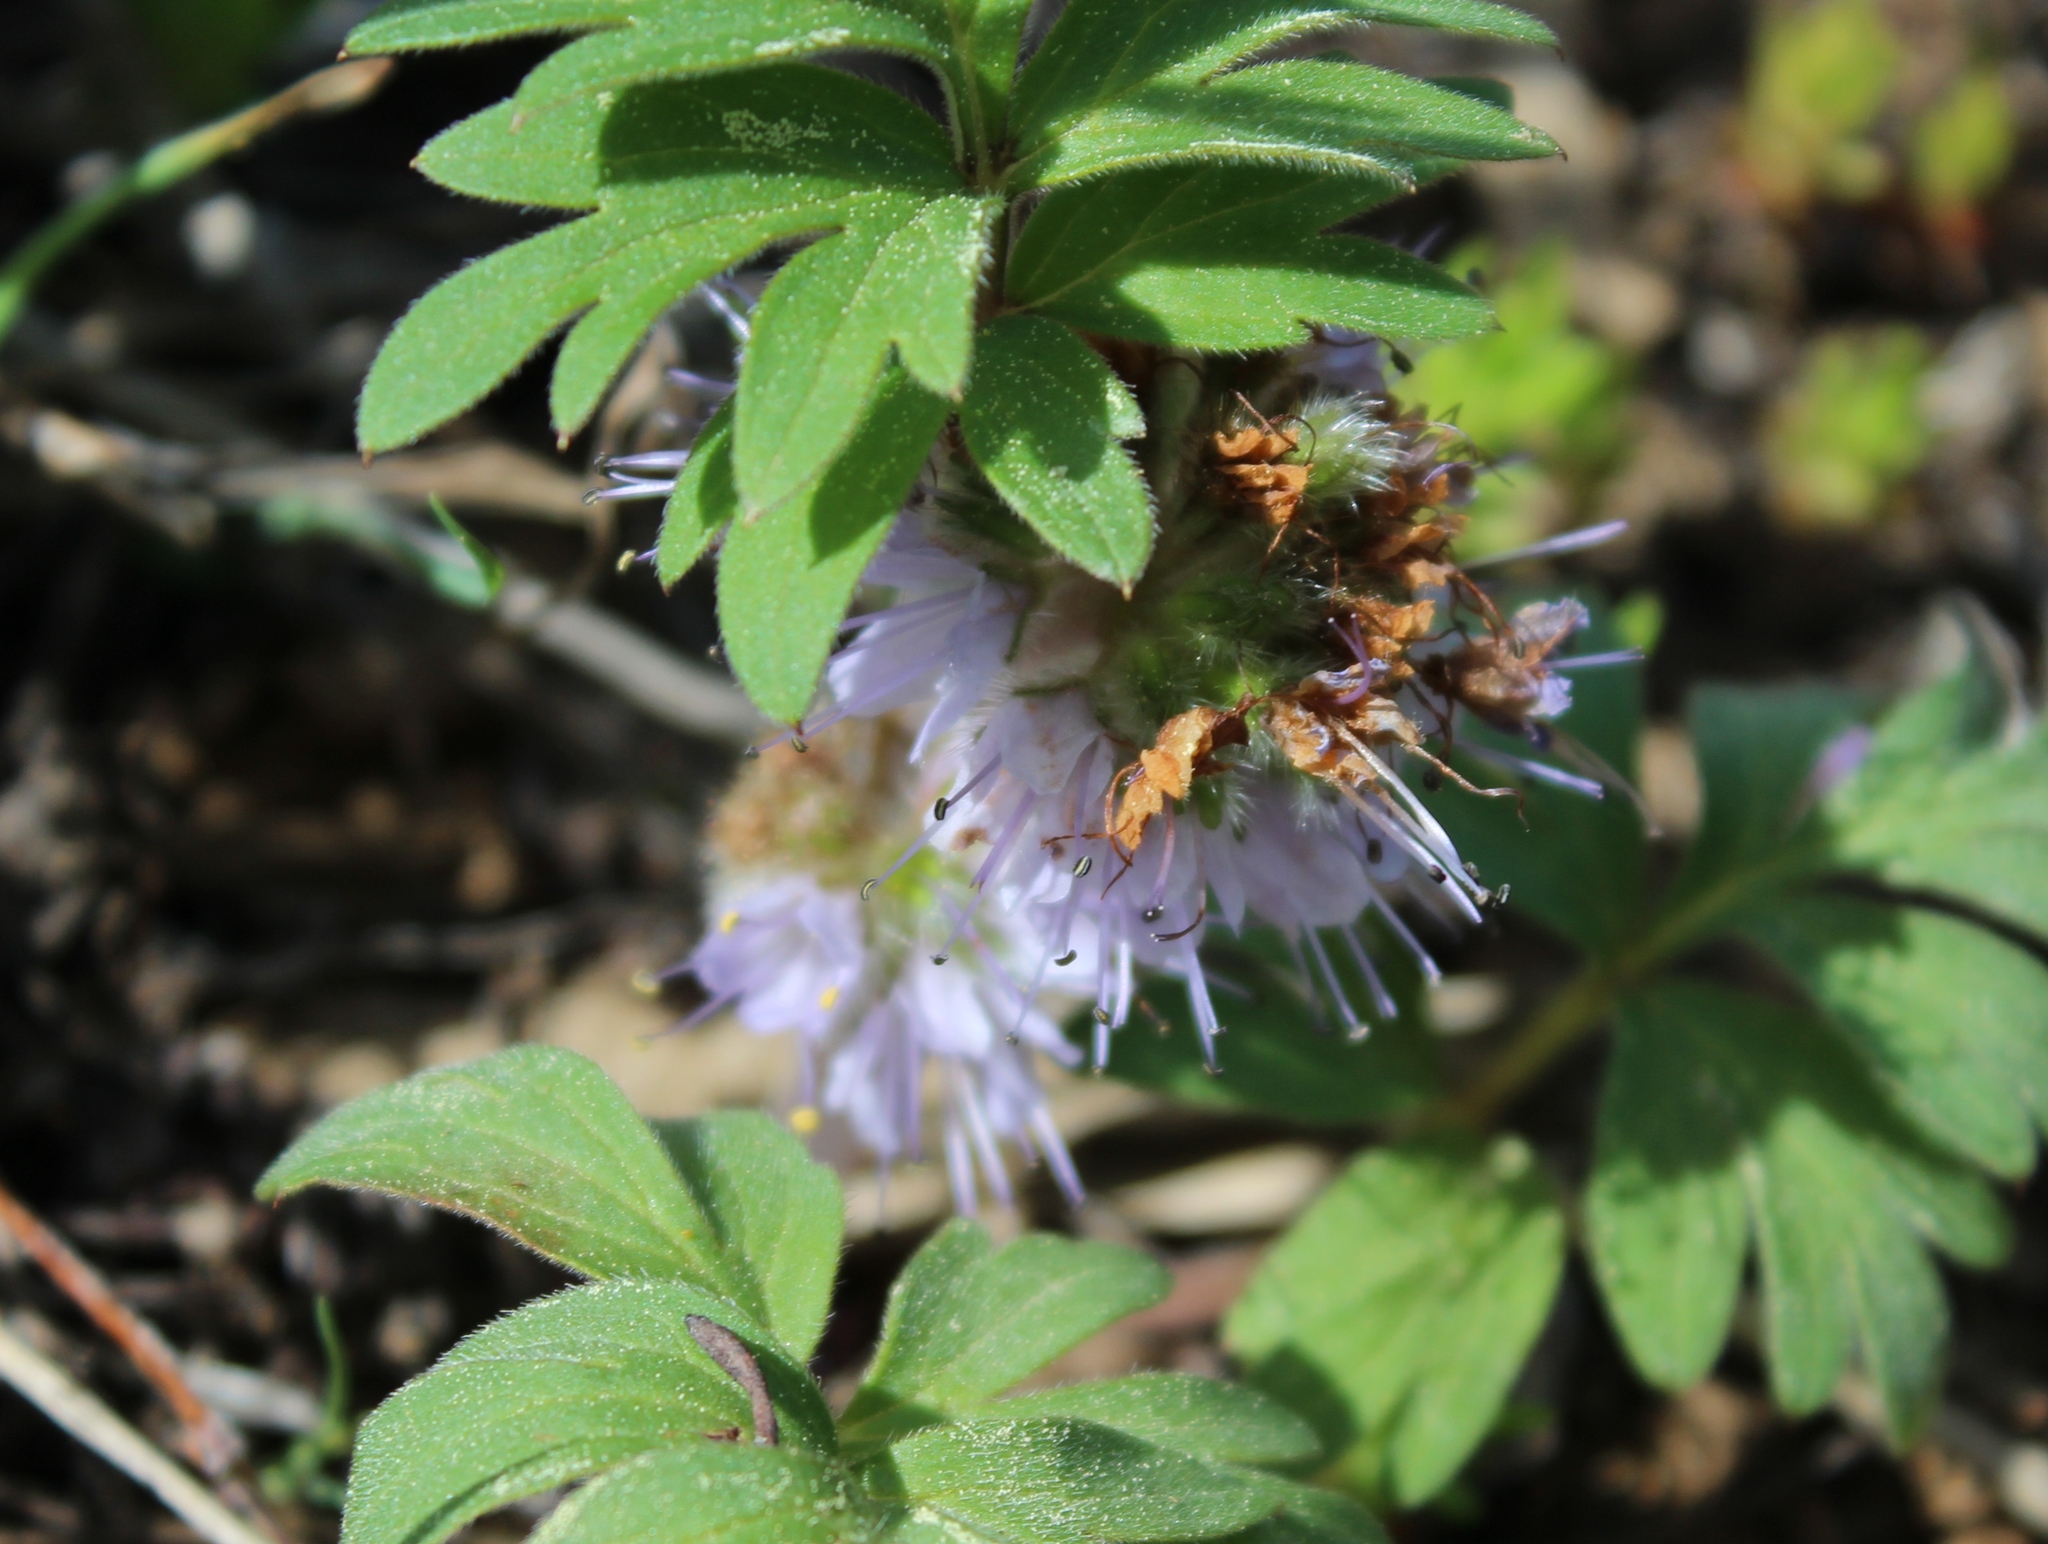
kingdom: Plantae
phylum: Tracheophyta
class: Magnoliopsida
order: Boraginales
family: Hydrophyllaceae
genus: Hydrophyllum
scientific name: Hydrophyllum capitatum
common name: Woollen-breeches
